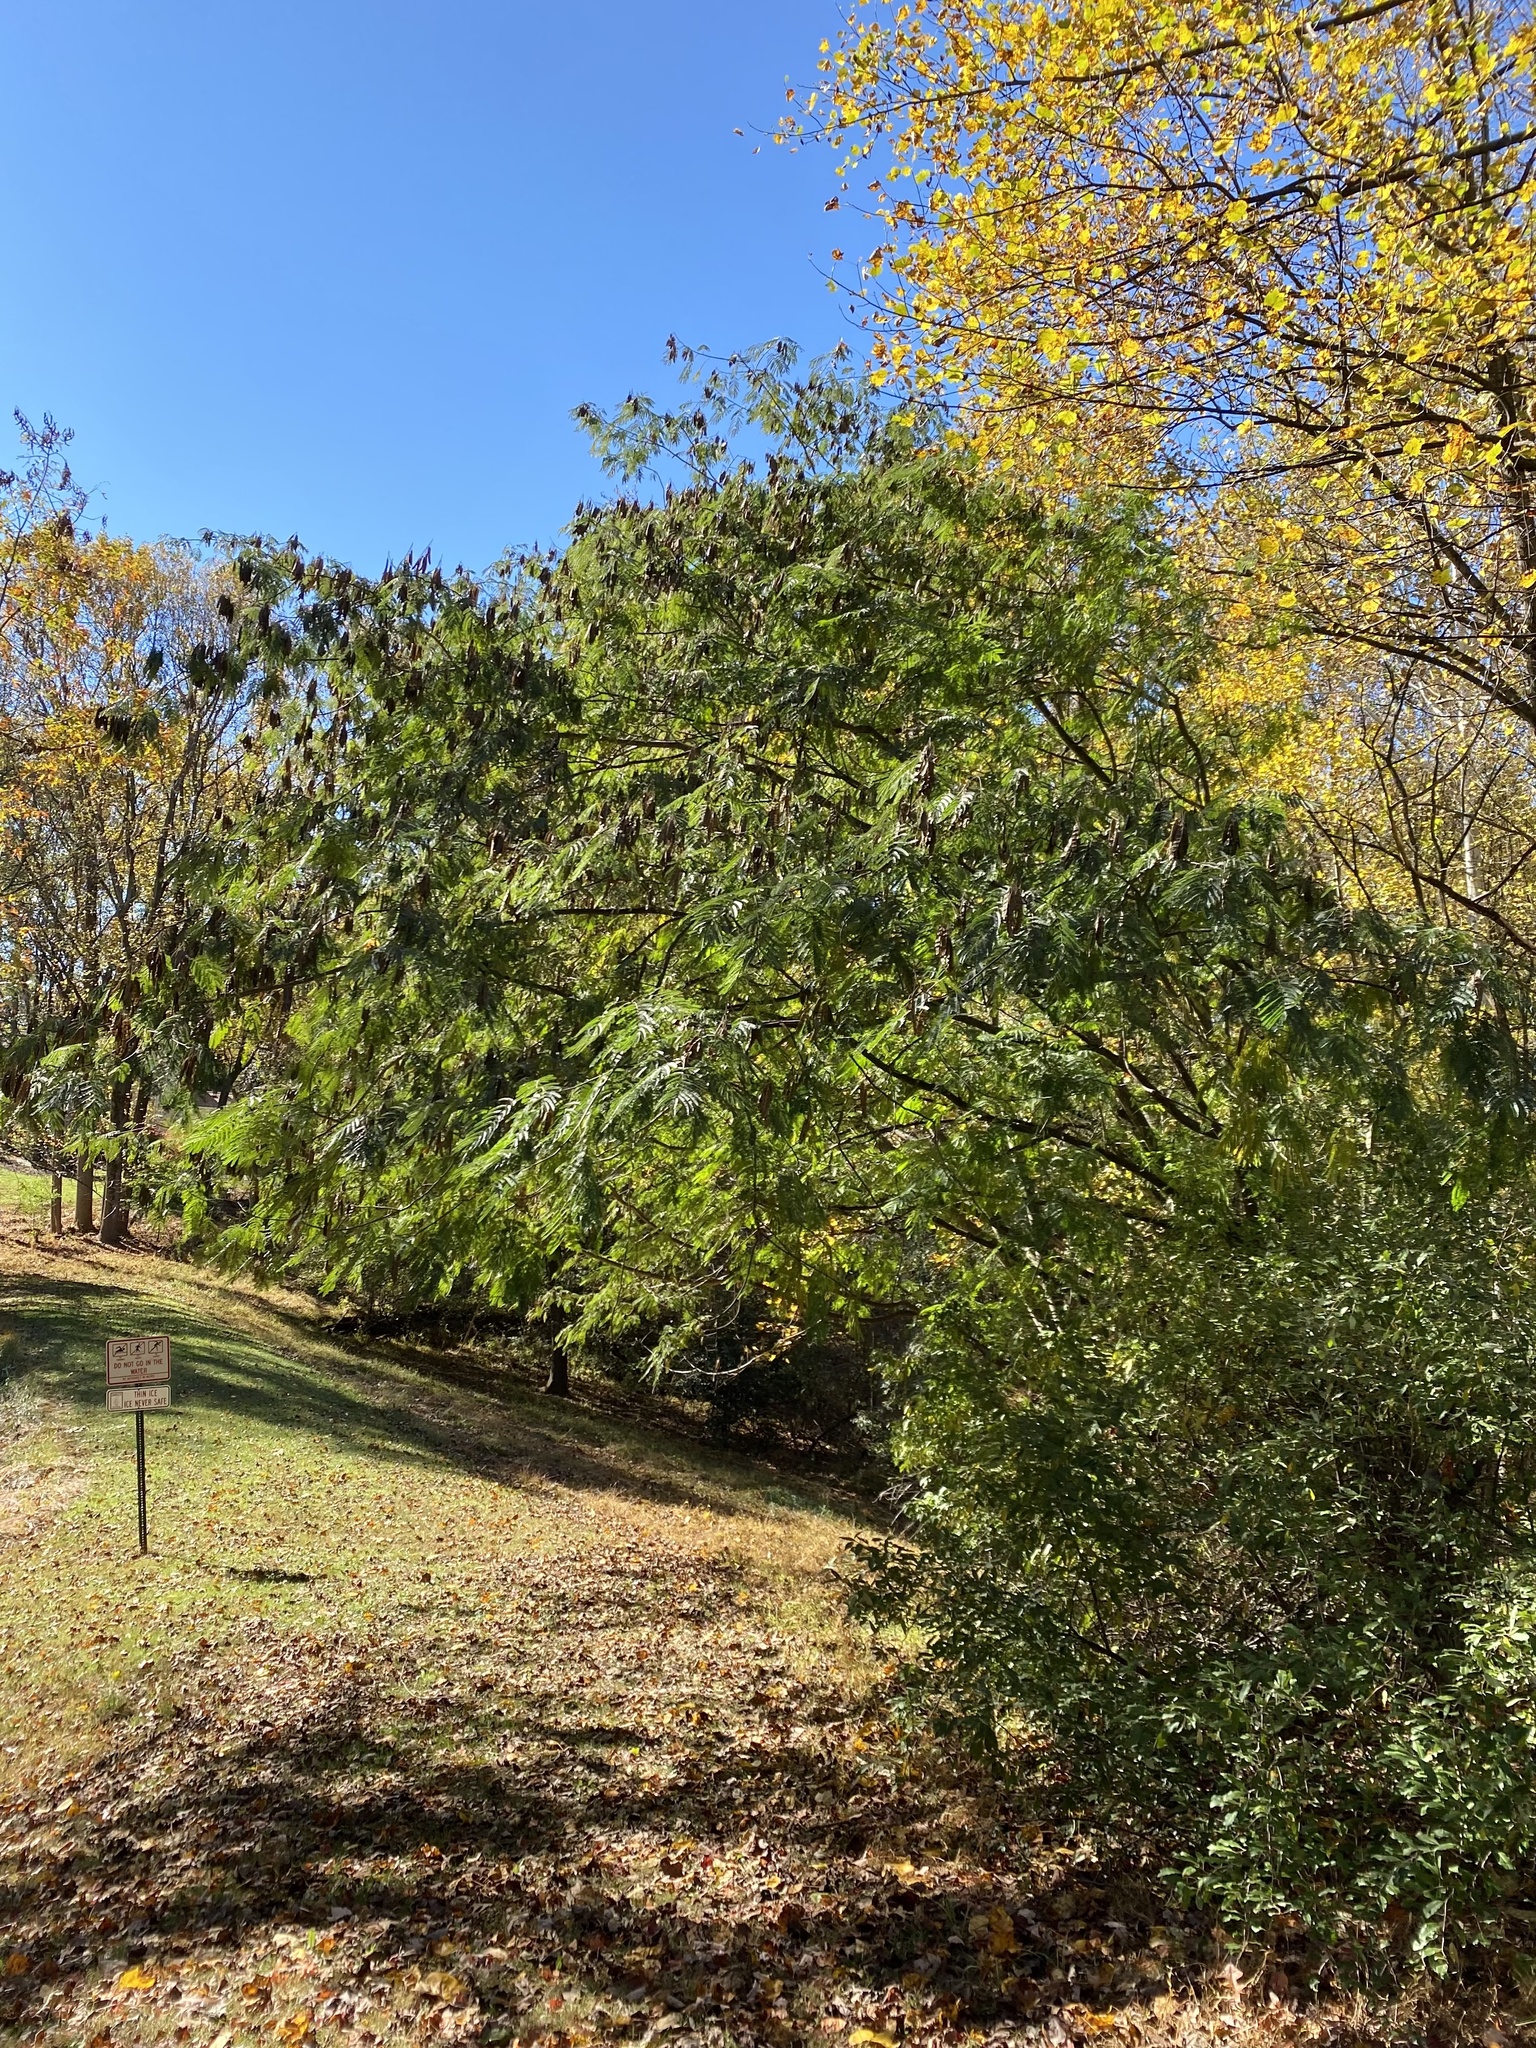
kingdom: Plantae
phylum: Tracheophyta
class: Magnoliopsida
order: Fabales
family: Fabaceae
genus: Albizia
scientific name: Albizia julibrissin
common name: Silktree
